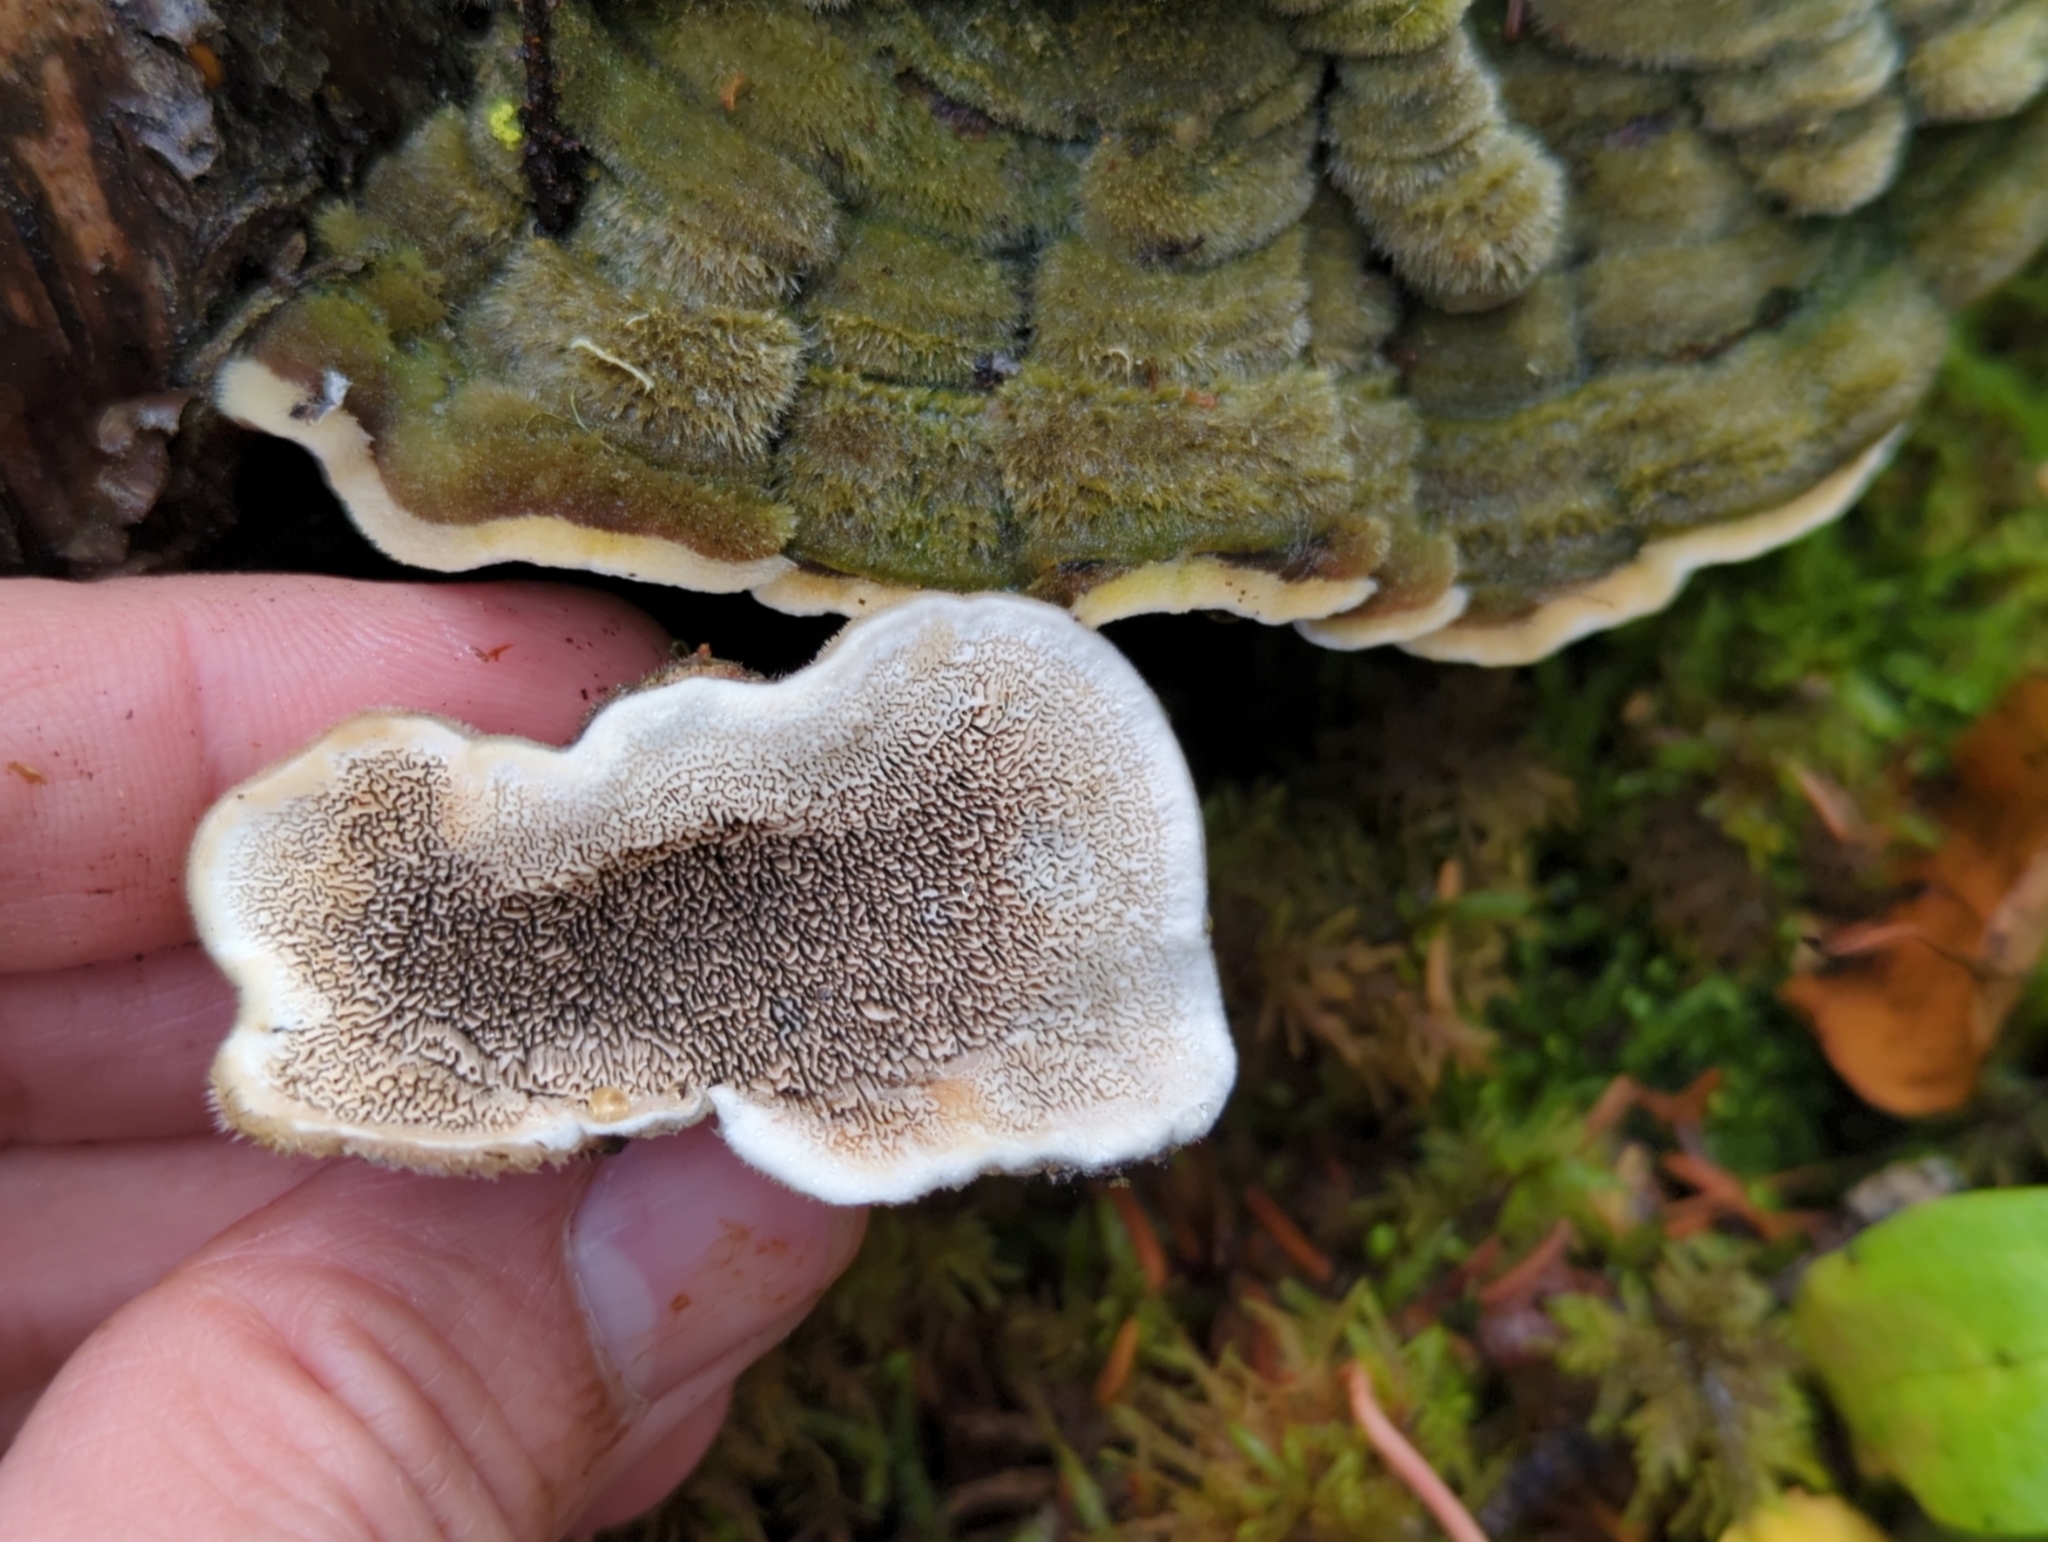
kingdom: Fungi
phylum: Basidiomycota
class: Agaricomycetes
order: Polyporales
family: Cerrenaceae
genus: Cerrena
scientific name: Cerrena unicolor
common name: Mossy maze polypore
